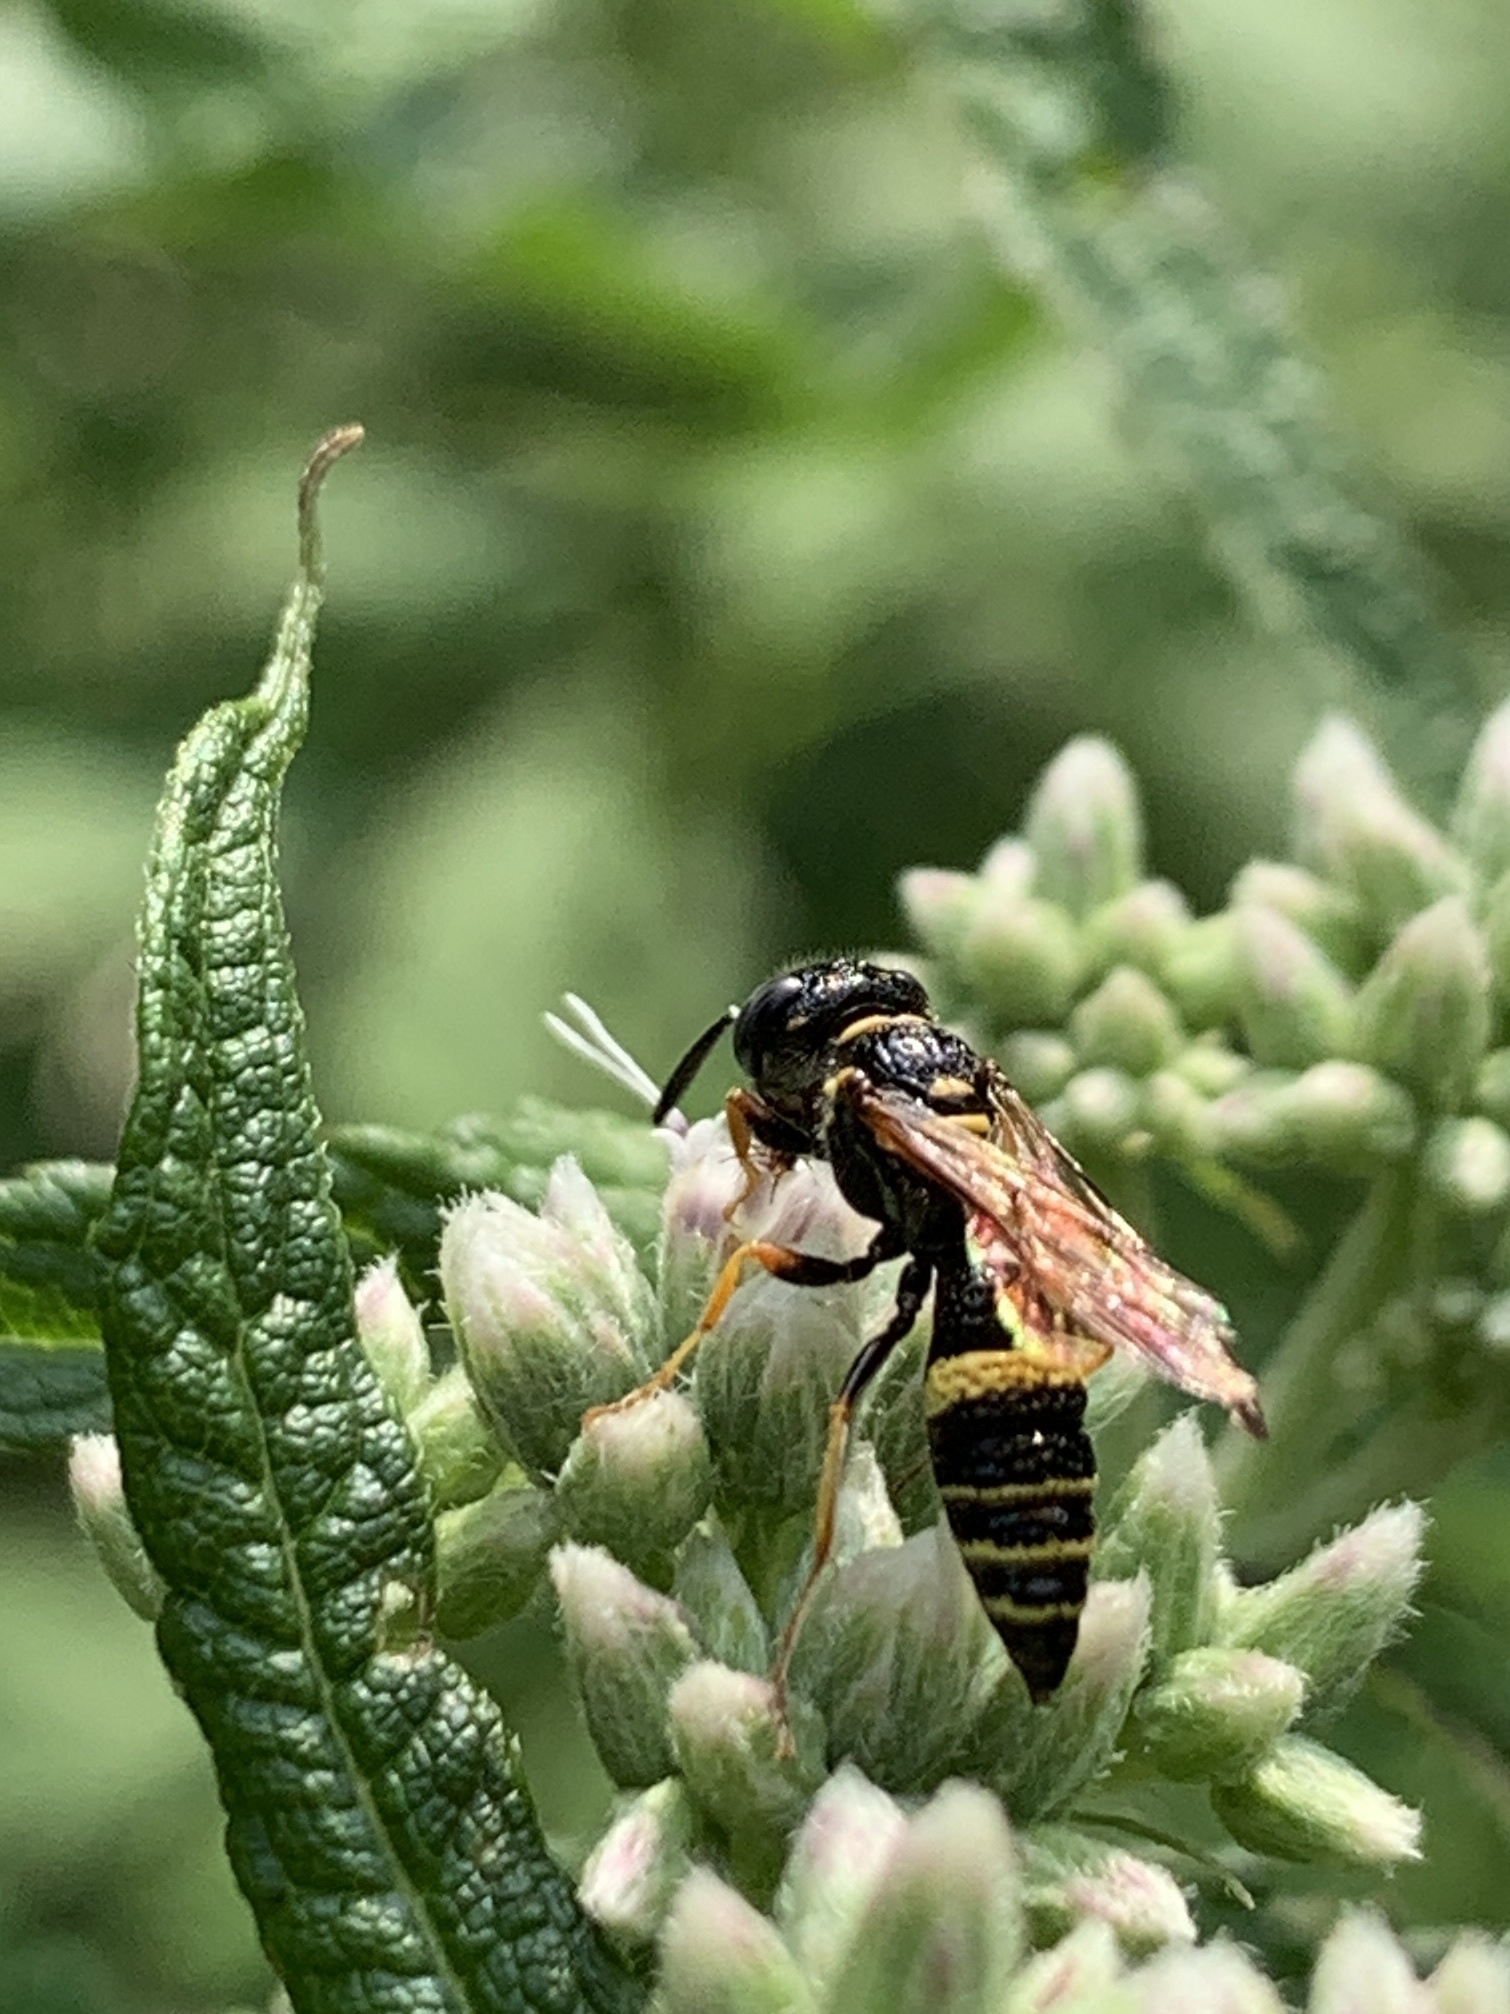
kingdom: Animalia
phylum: Arthropoda
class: Insecta
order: Hymenoptera
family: Crabronidae
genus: Philanthus
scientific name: Philanthus gibbosus
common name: Humped beewolf
